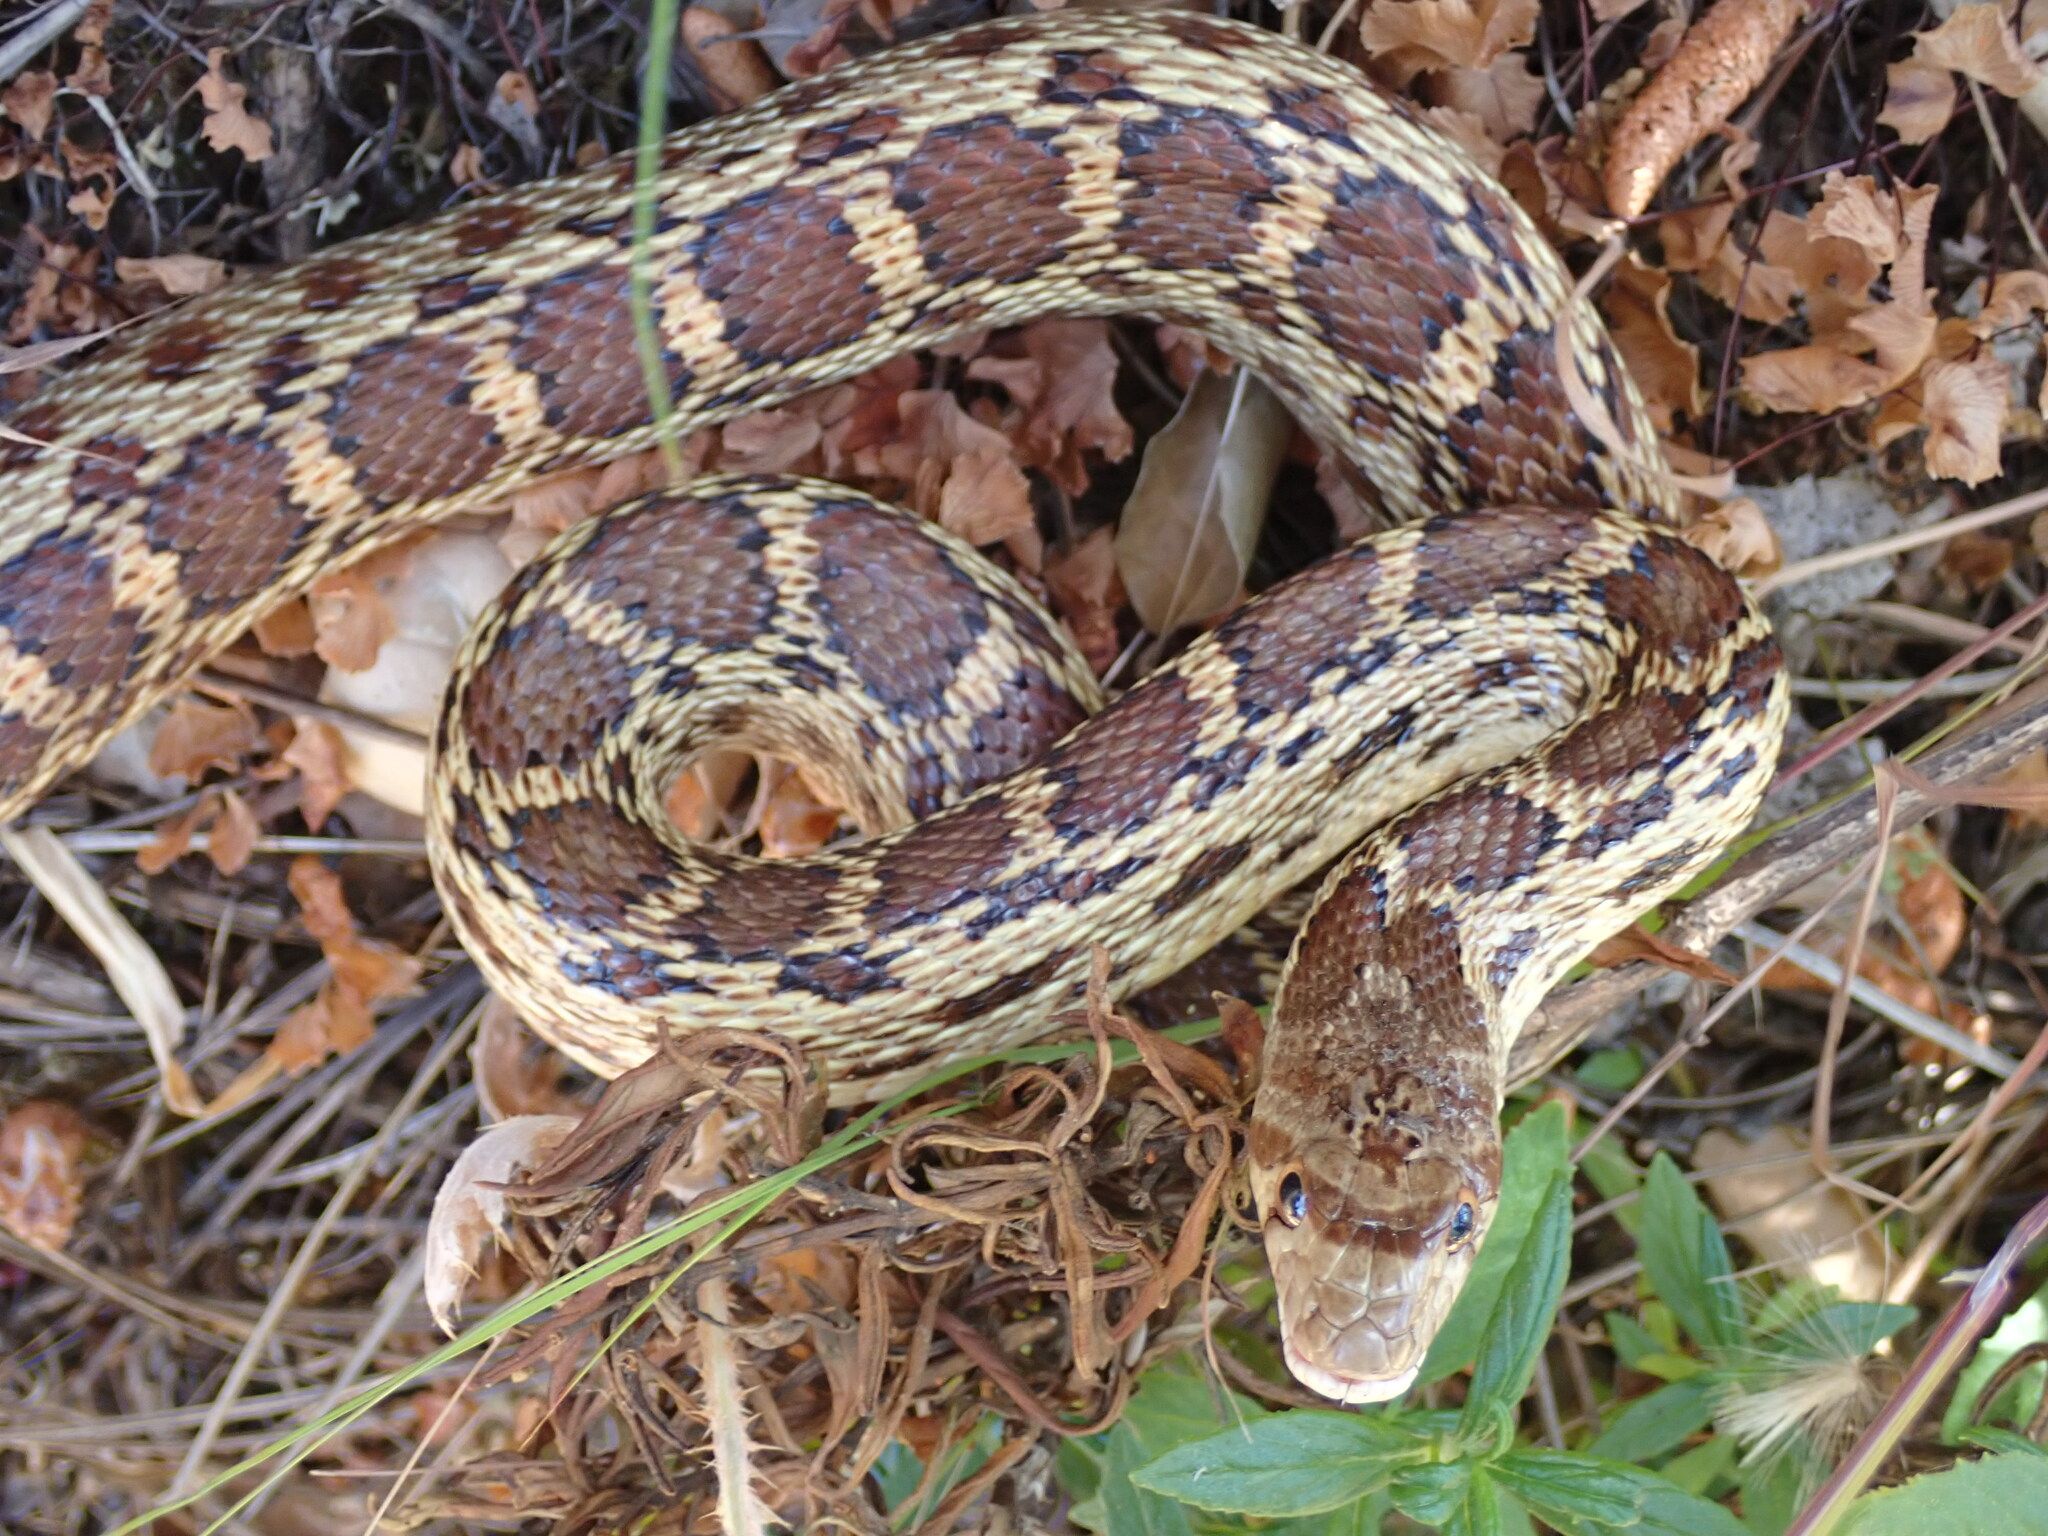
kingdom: Animalia
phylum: Chordata
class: Squamata
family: Colubridae
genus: Pituophis
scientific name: Pituophis catenifer
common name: Gopher snake
